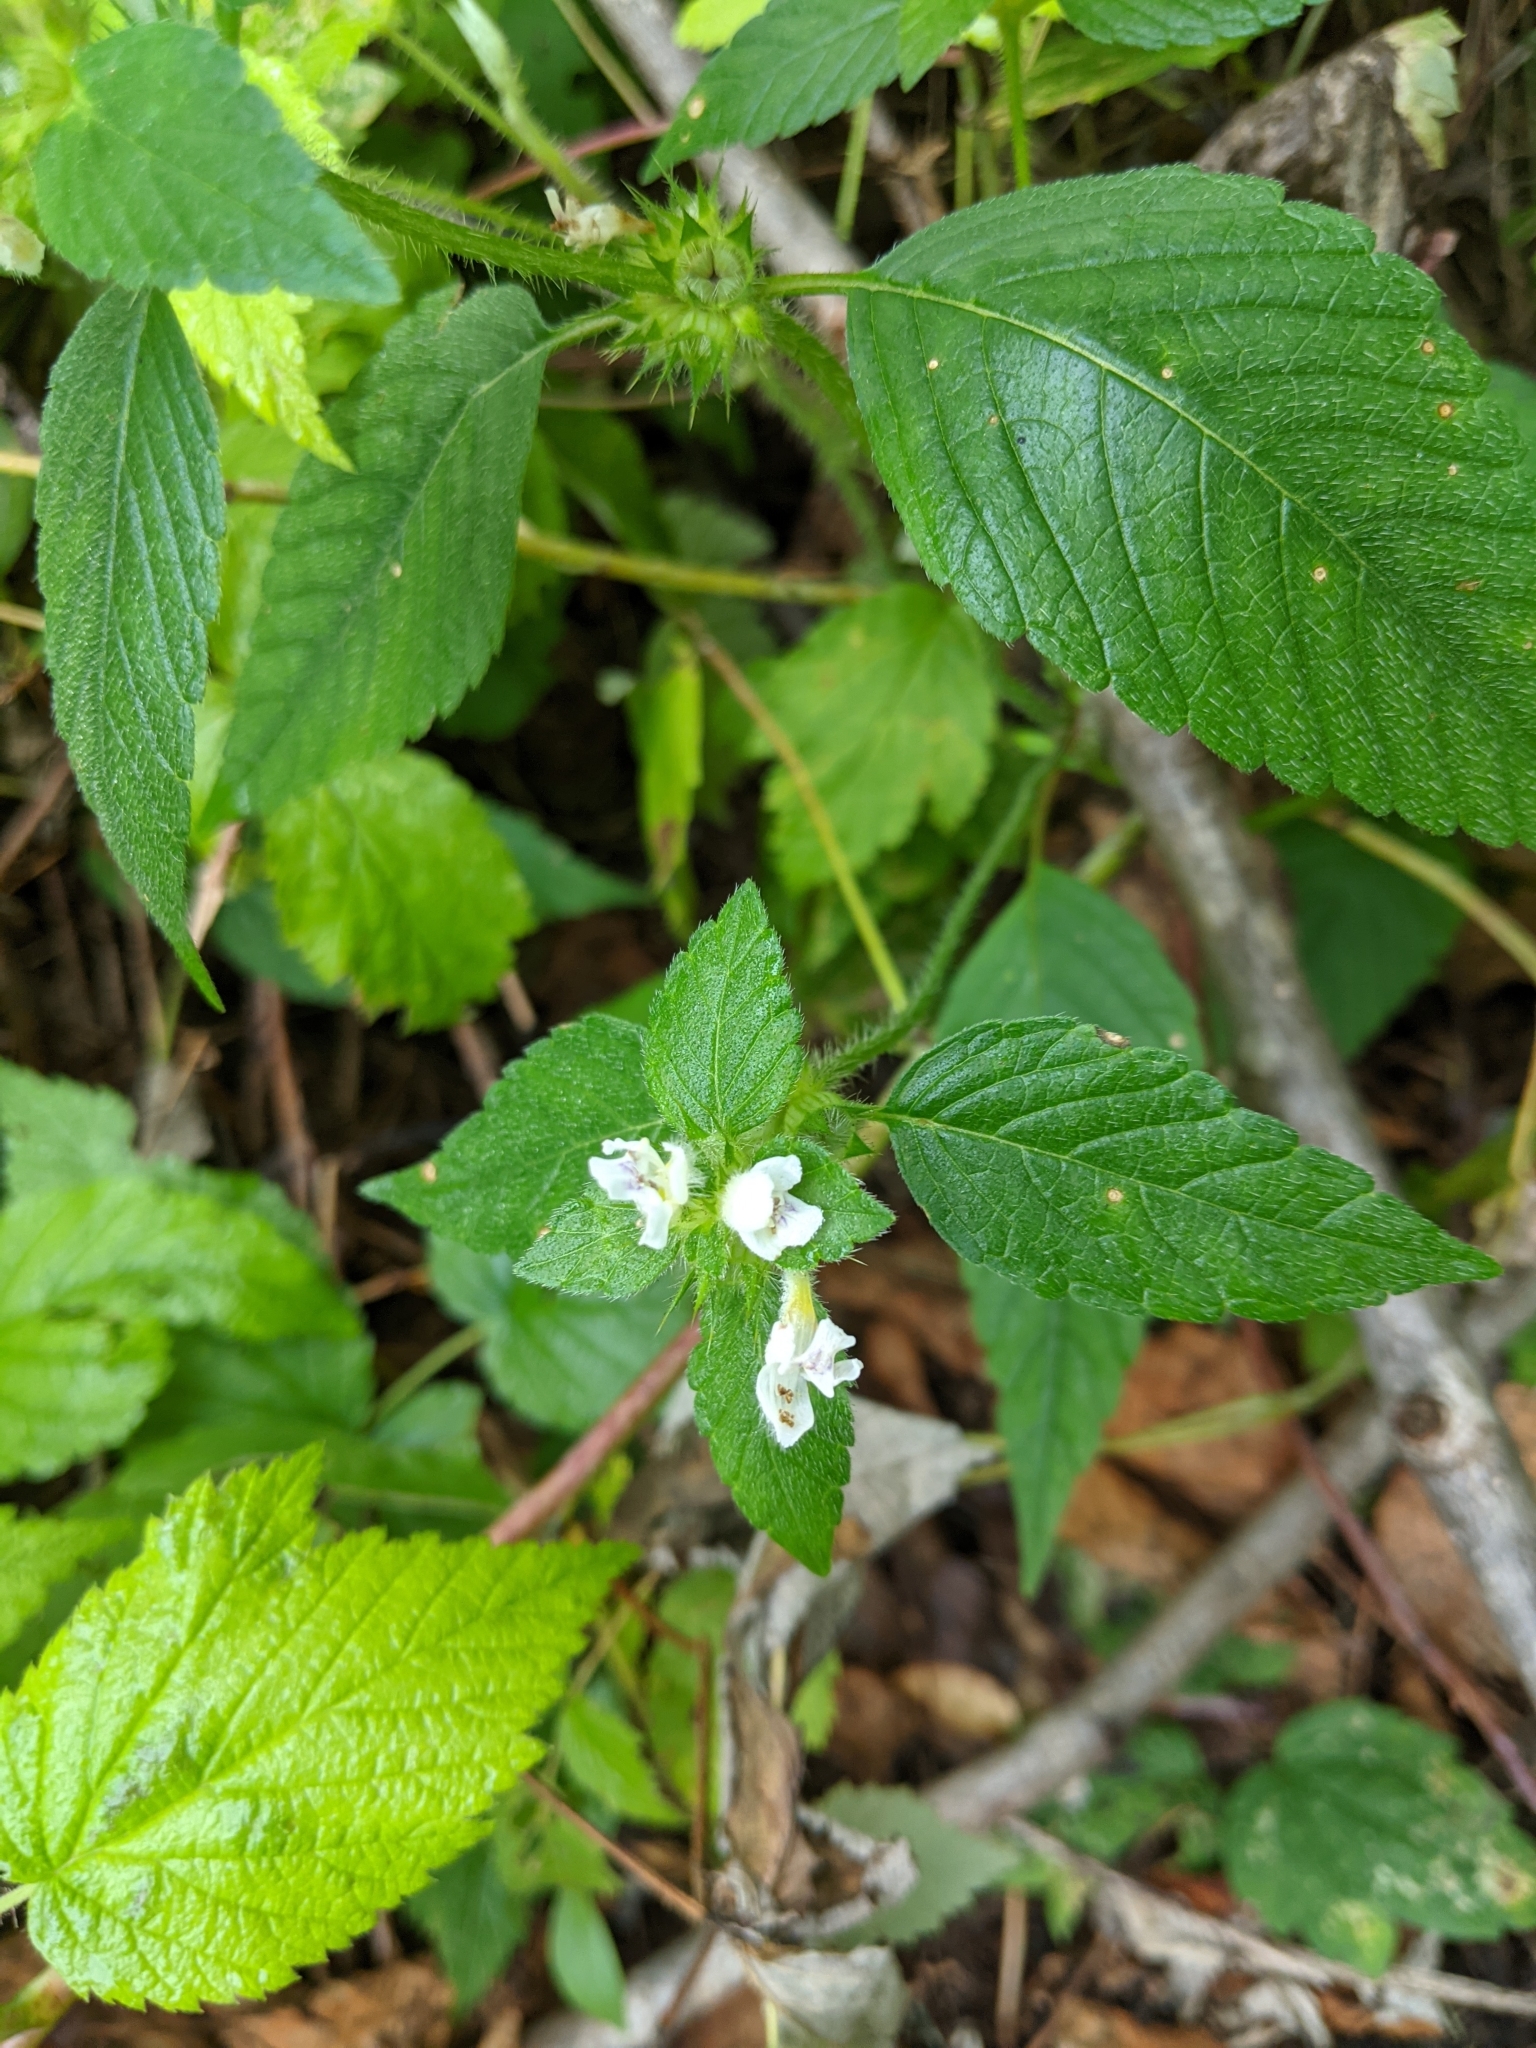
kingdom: Plantae
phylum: Tracheophyta
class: Magnoliopsida
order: Lamiales
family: Lamiaceae
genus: Galeopsis
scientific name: Galeopsis tetrahit
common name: Common hemp-nettle
